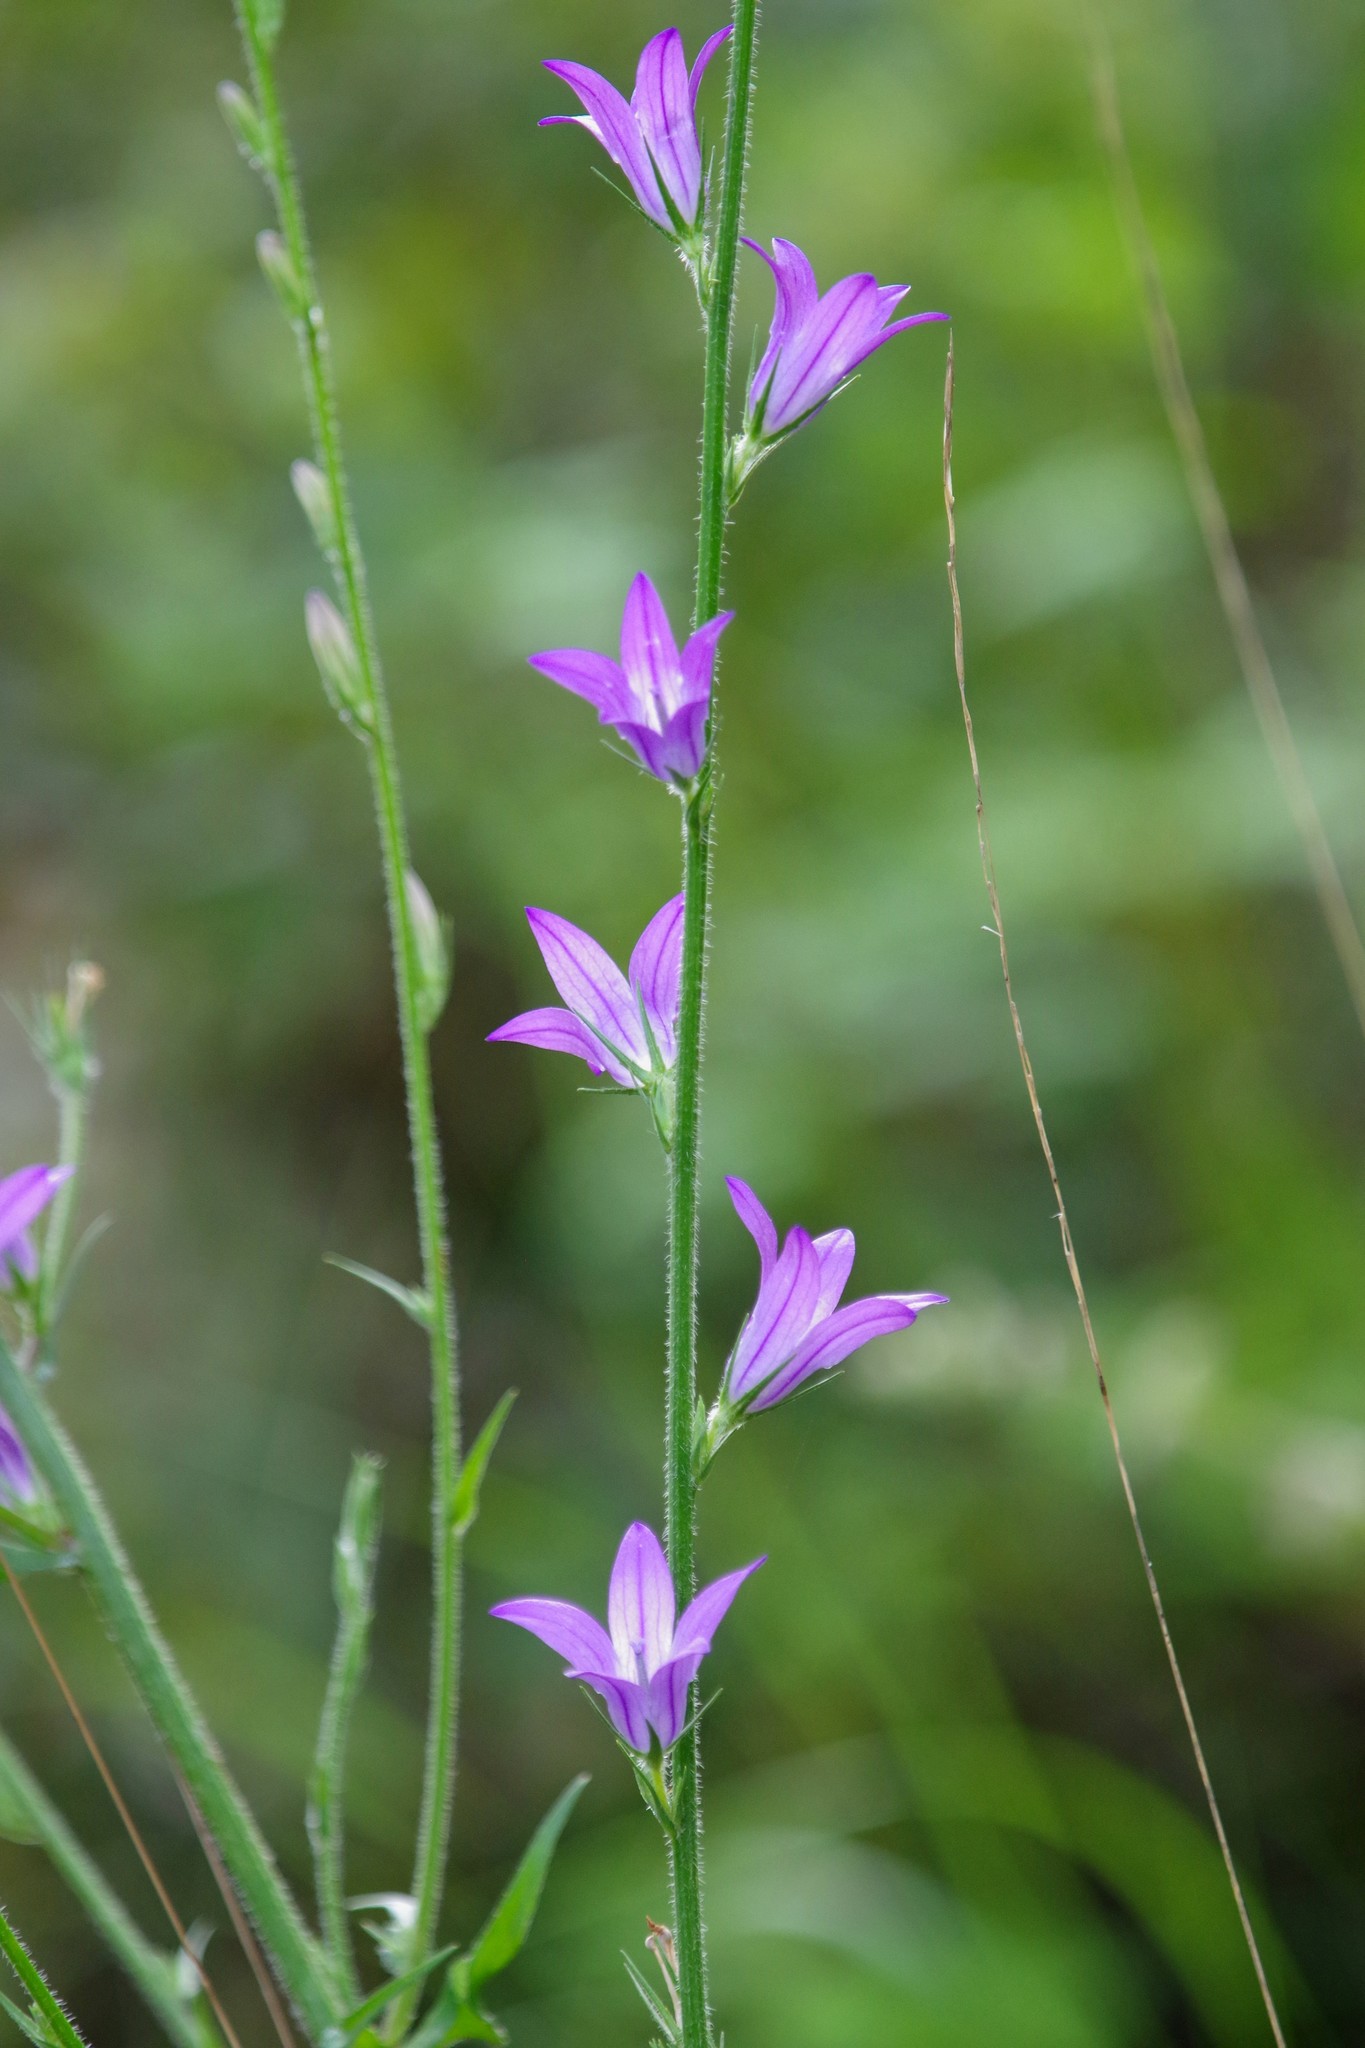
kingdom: Plantae
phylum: Tracheophyta
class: Magnoliopsida
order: Asterales
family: Campanulaceae
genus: Campanula
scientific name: Campanula rapunculus
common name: Rampion bellflower
